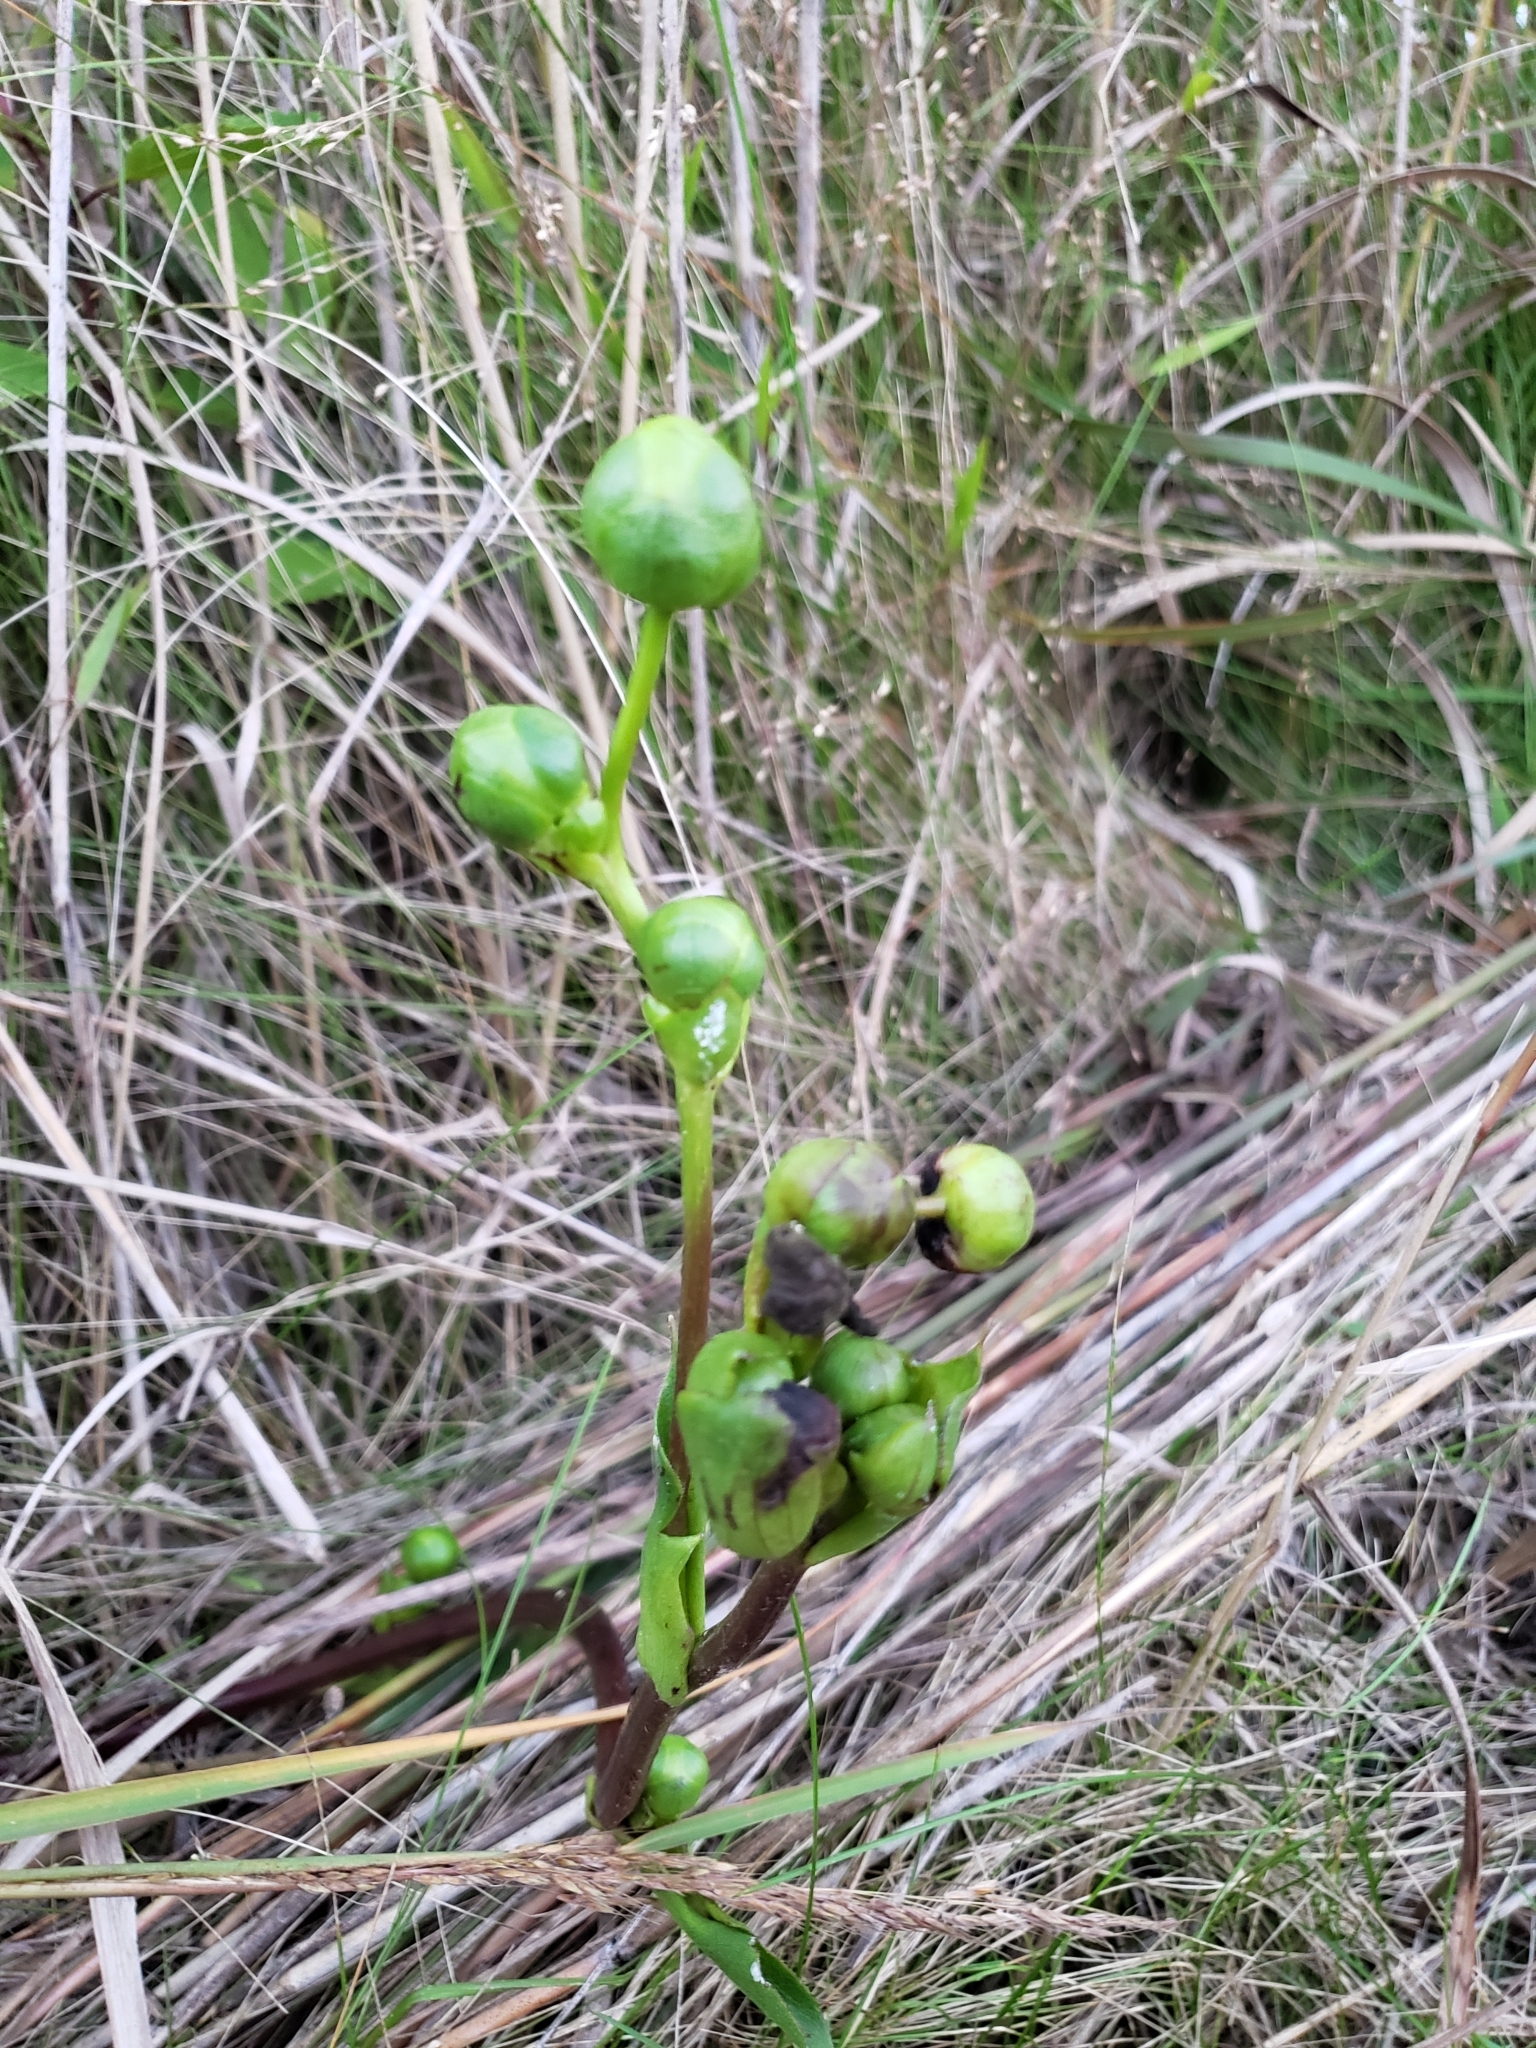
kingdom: Plantae
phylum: Tracheophyta
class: Magnoliopsida
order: Asterales
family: Asteraceae
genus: Silphium
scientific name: Silphium terebinthinaceum
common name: Basal-leaf rosinweed
